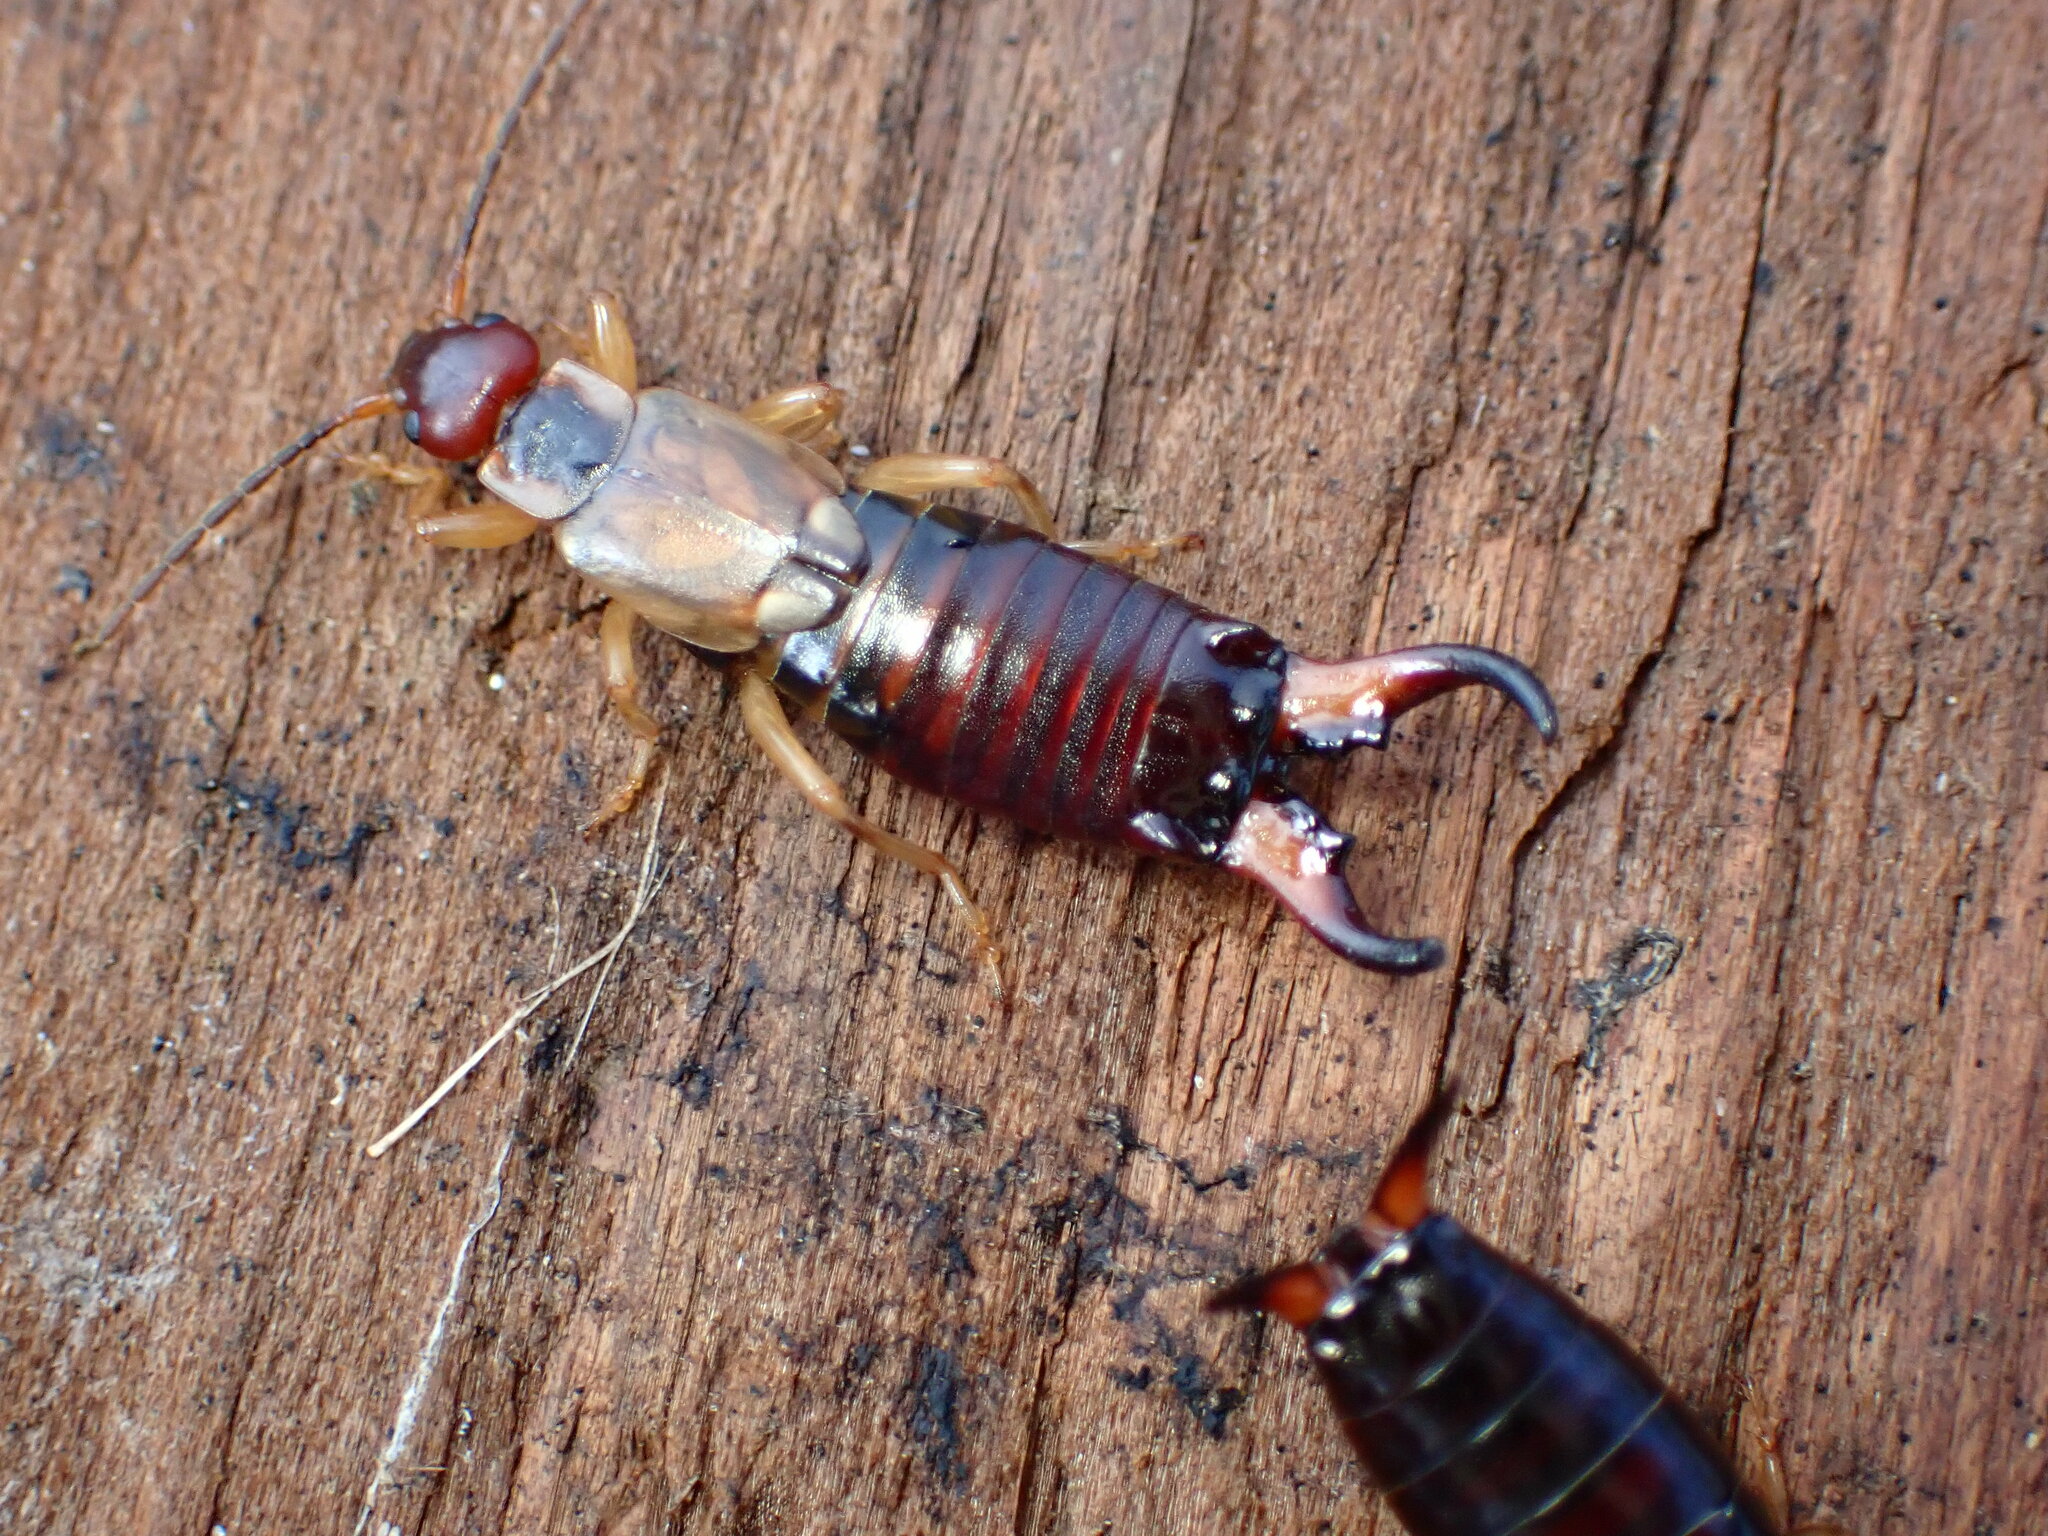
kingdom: Animalia
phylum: Arthropoda
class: Insecta
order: Dermaptera
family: Forficulidae
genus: Forficula
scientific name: Forficula
